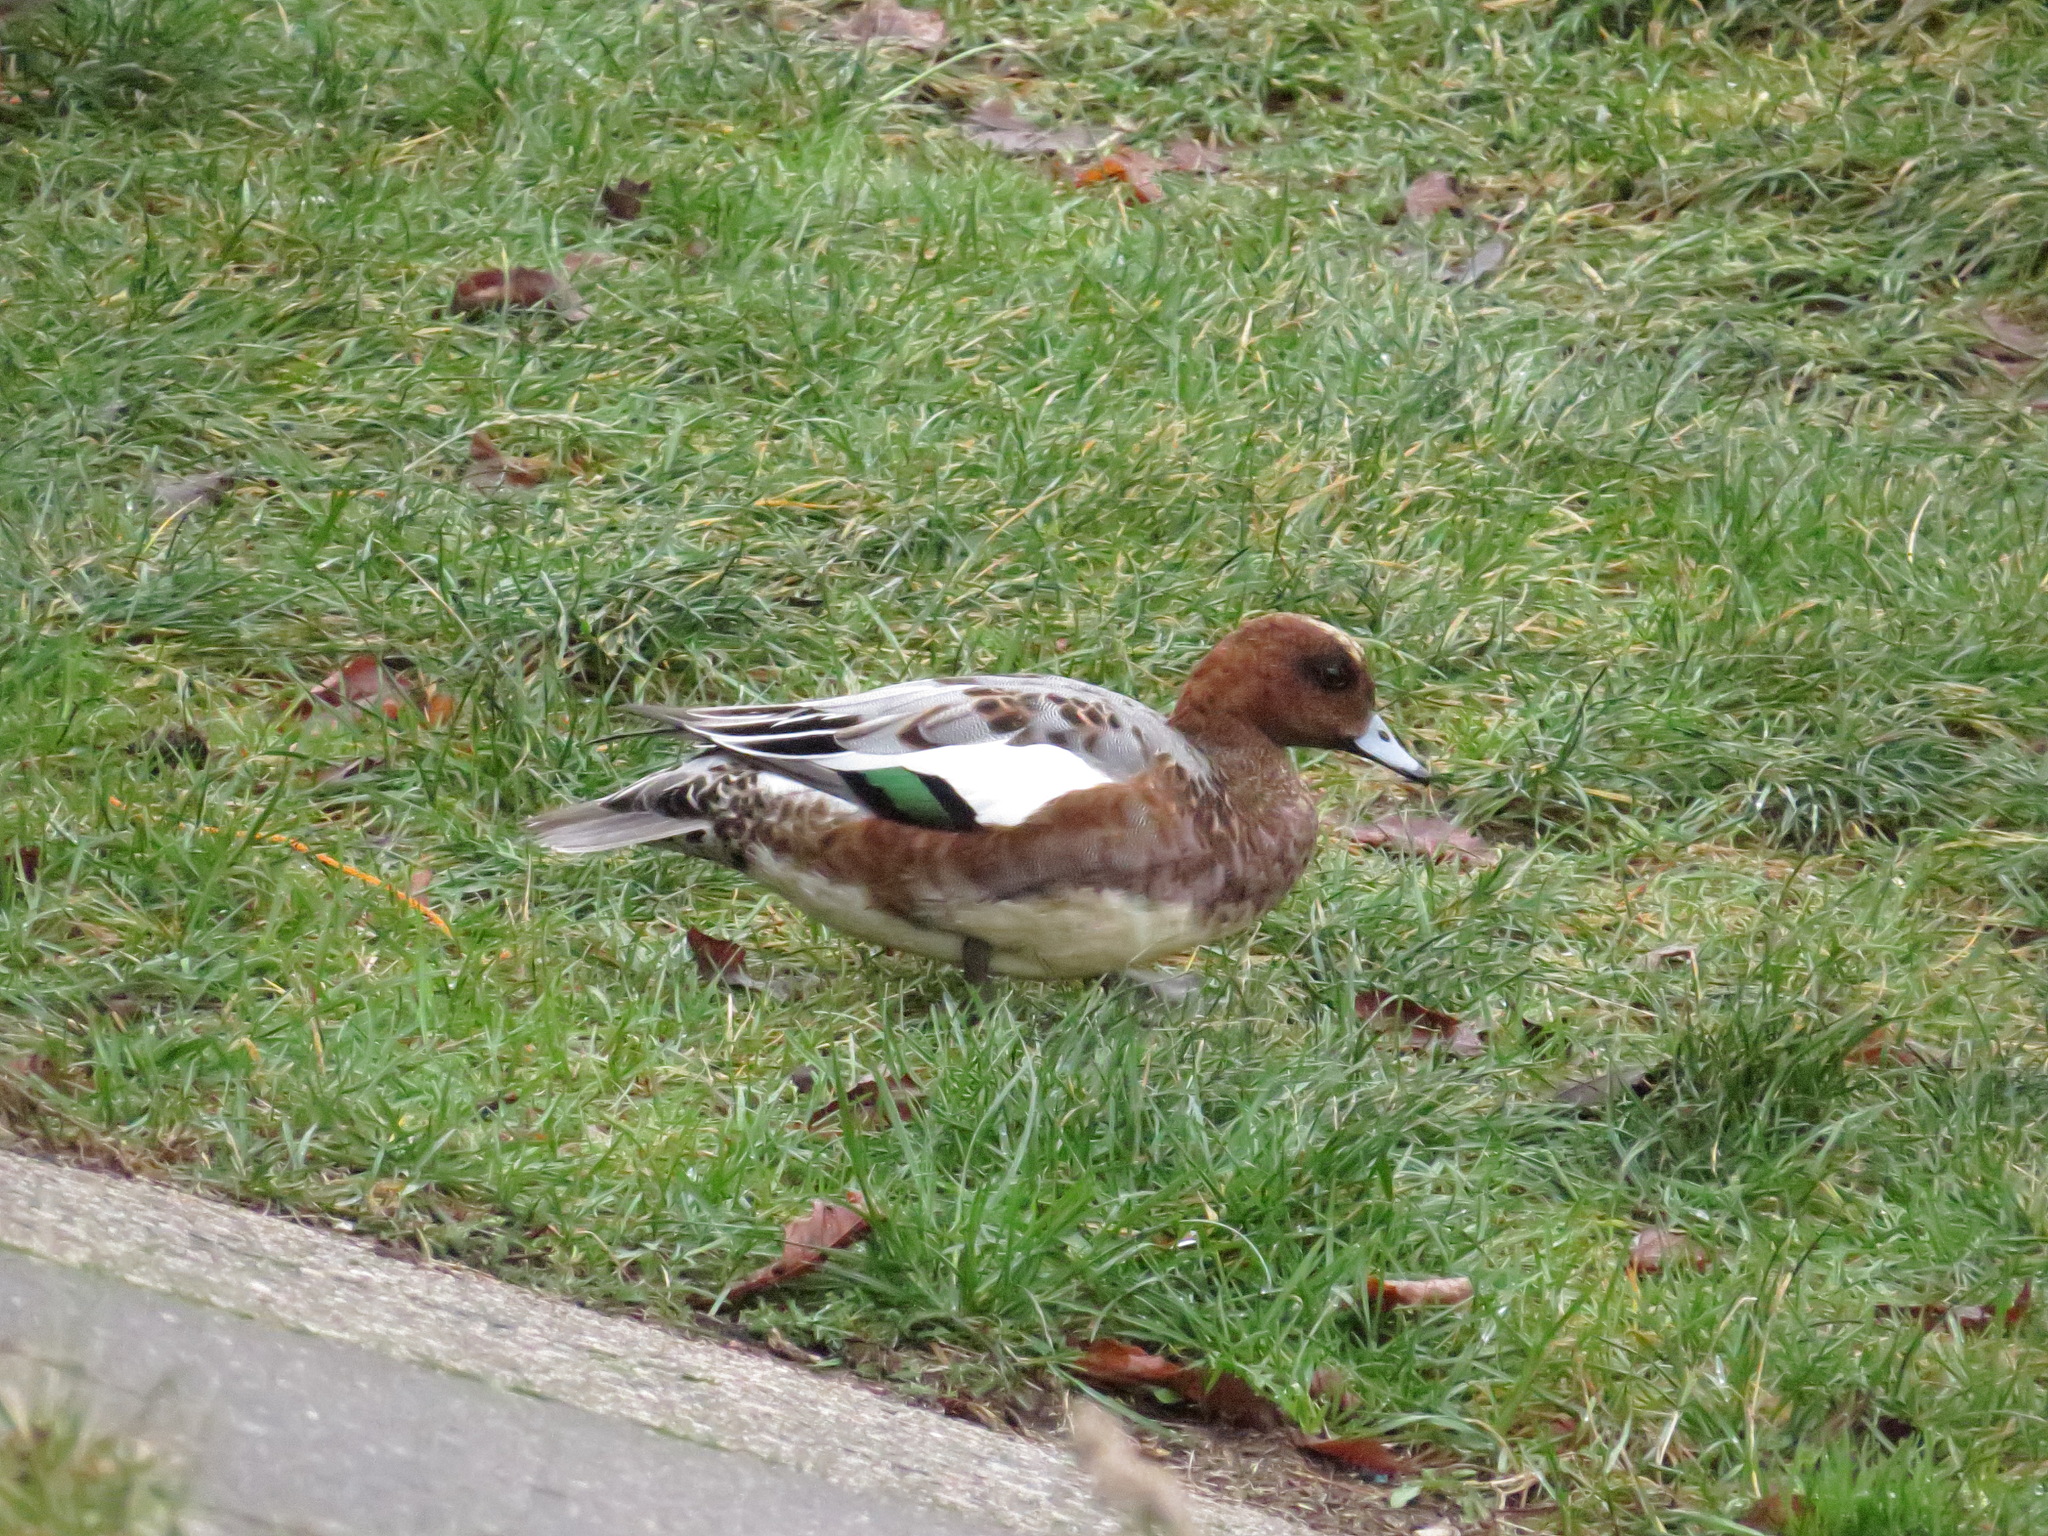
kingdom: Animalia
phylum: Chordata
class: Aves
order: Anseriformes
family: Anatidae
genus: Mareca
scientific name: Mareca penelope
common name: Eurasian wigeon
